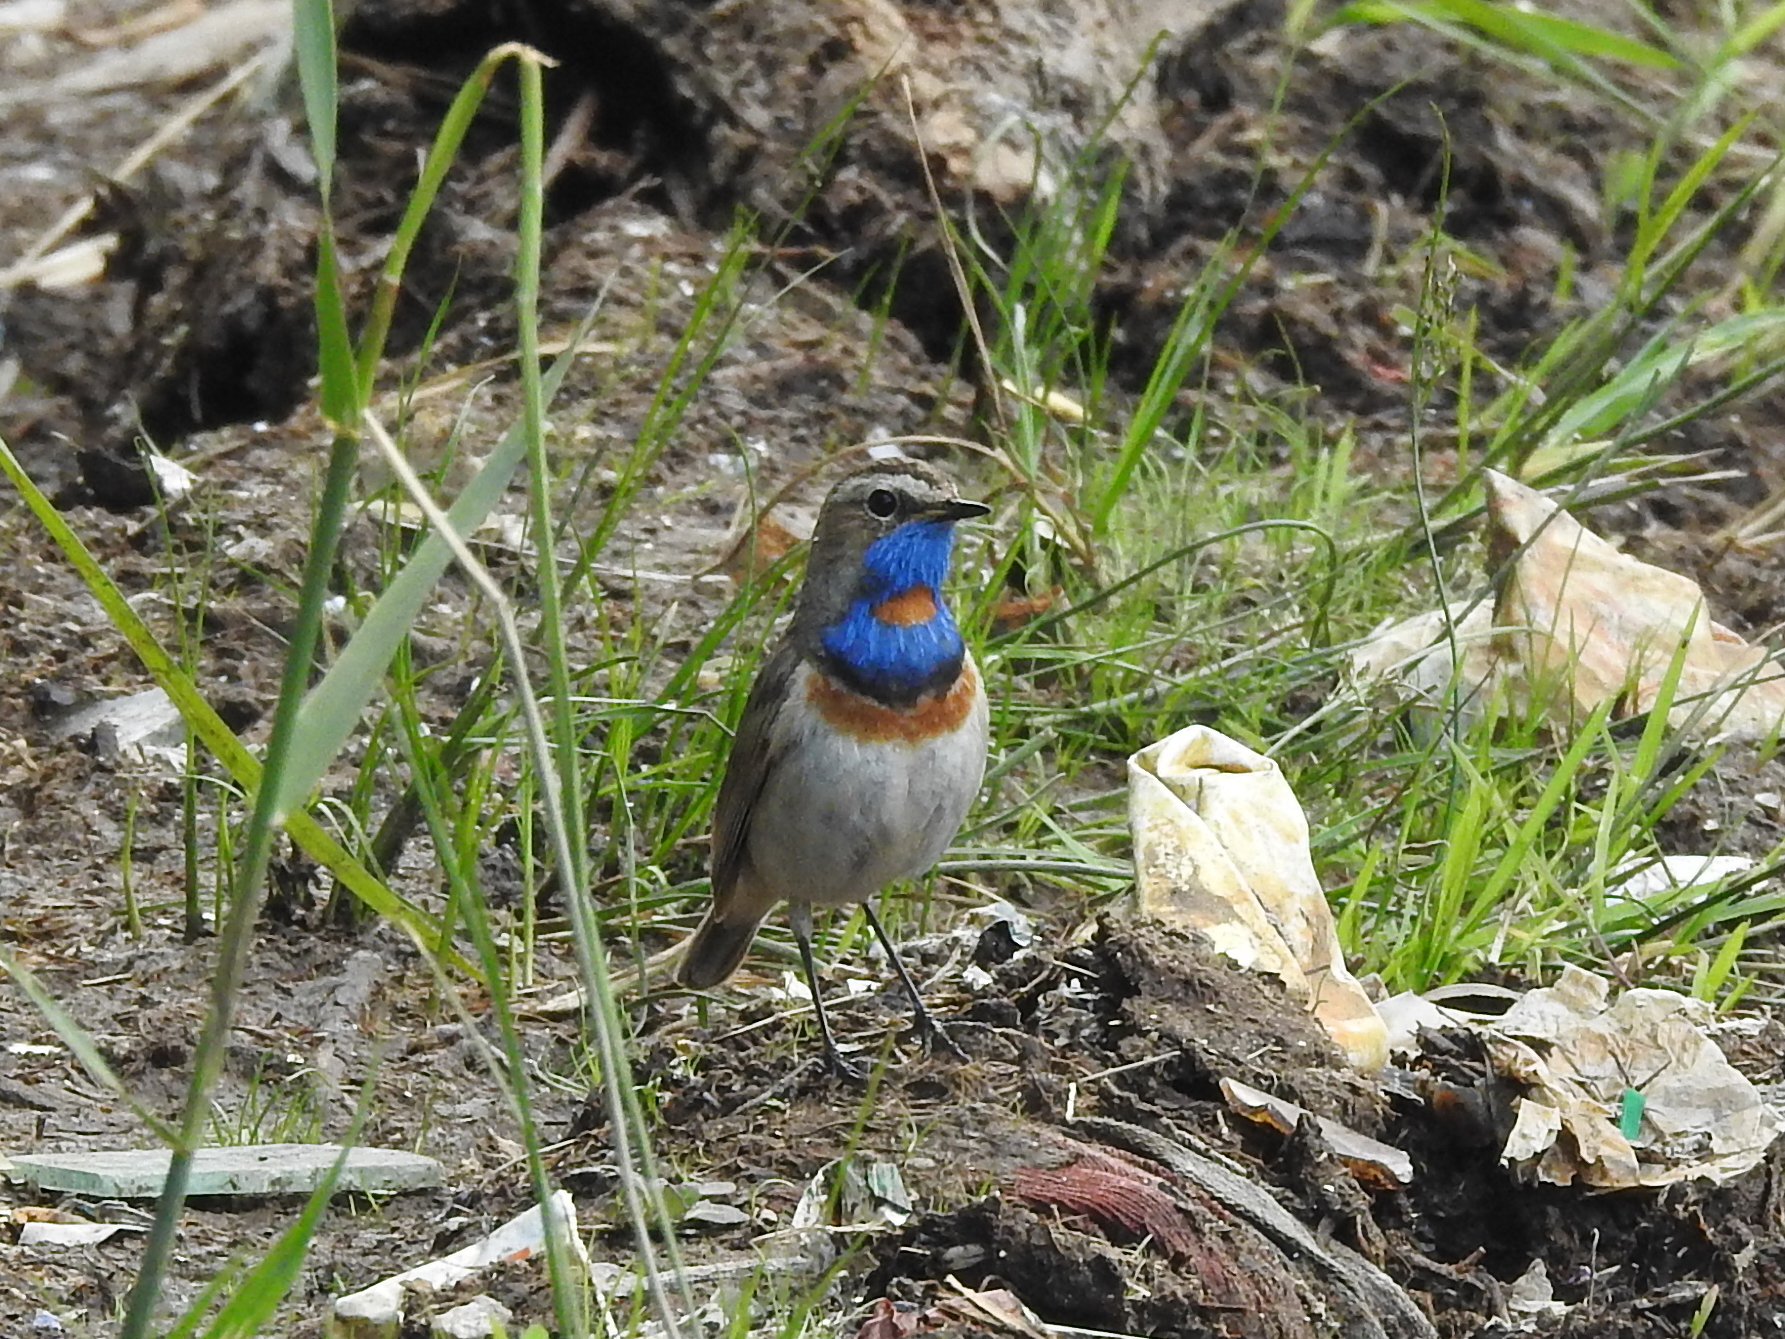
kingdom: Animalia
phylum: Chordata
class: Aves
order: Passeriformes
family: Muscicapidae
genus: Luscinia
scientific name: Luscinia svecica
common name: Bluethroat
